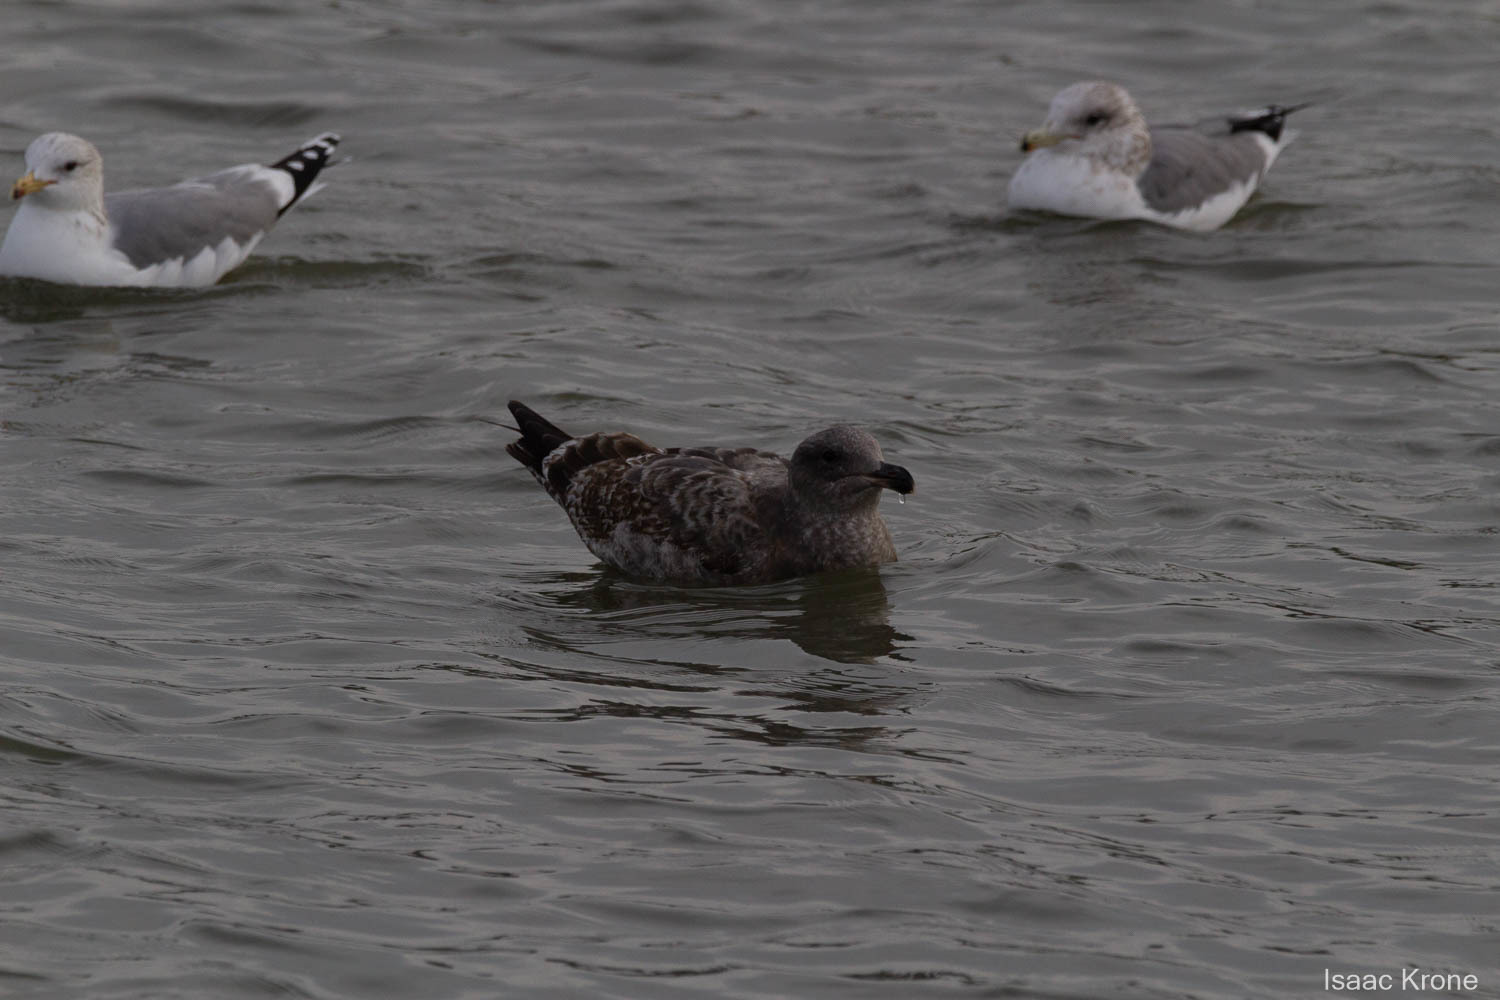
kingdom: Animalia
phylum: Chordata
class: Aves
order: Charadriiformes
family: Laridae
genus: Larus
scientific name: Larus occidentalis
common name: Western gull
